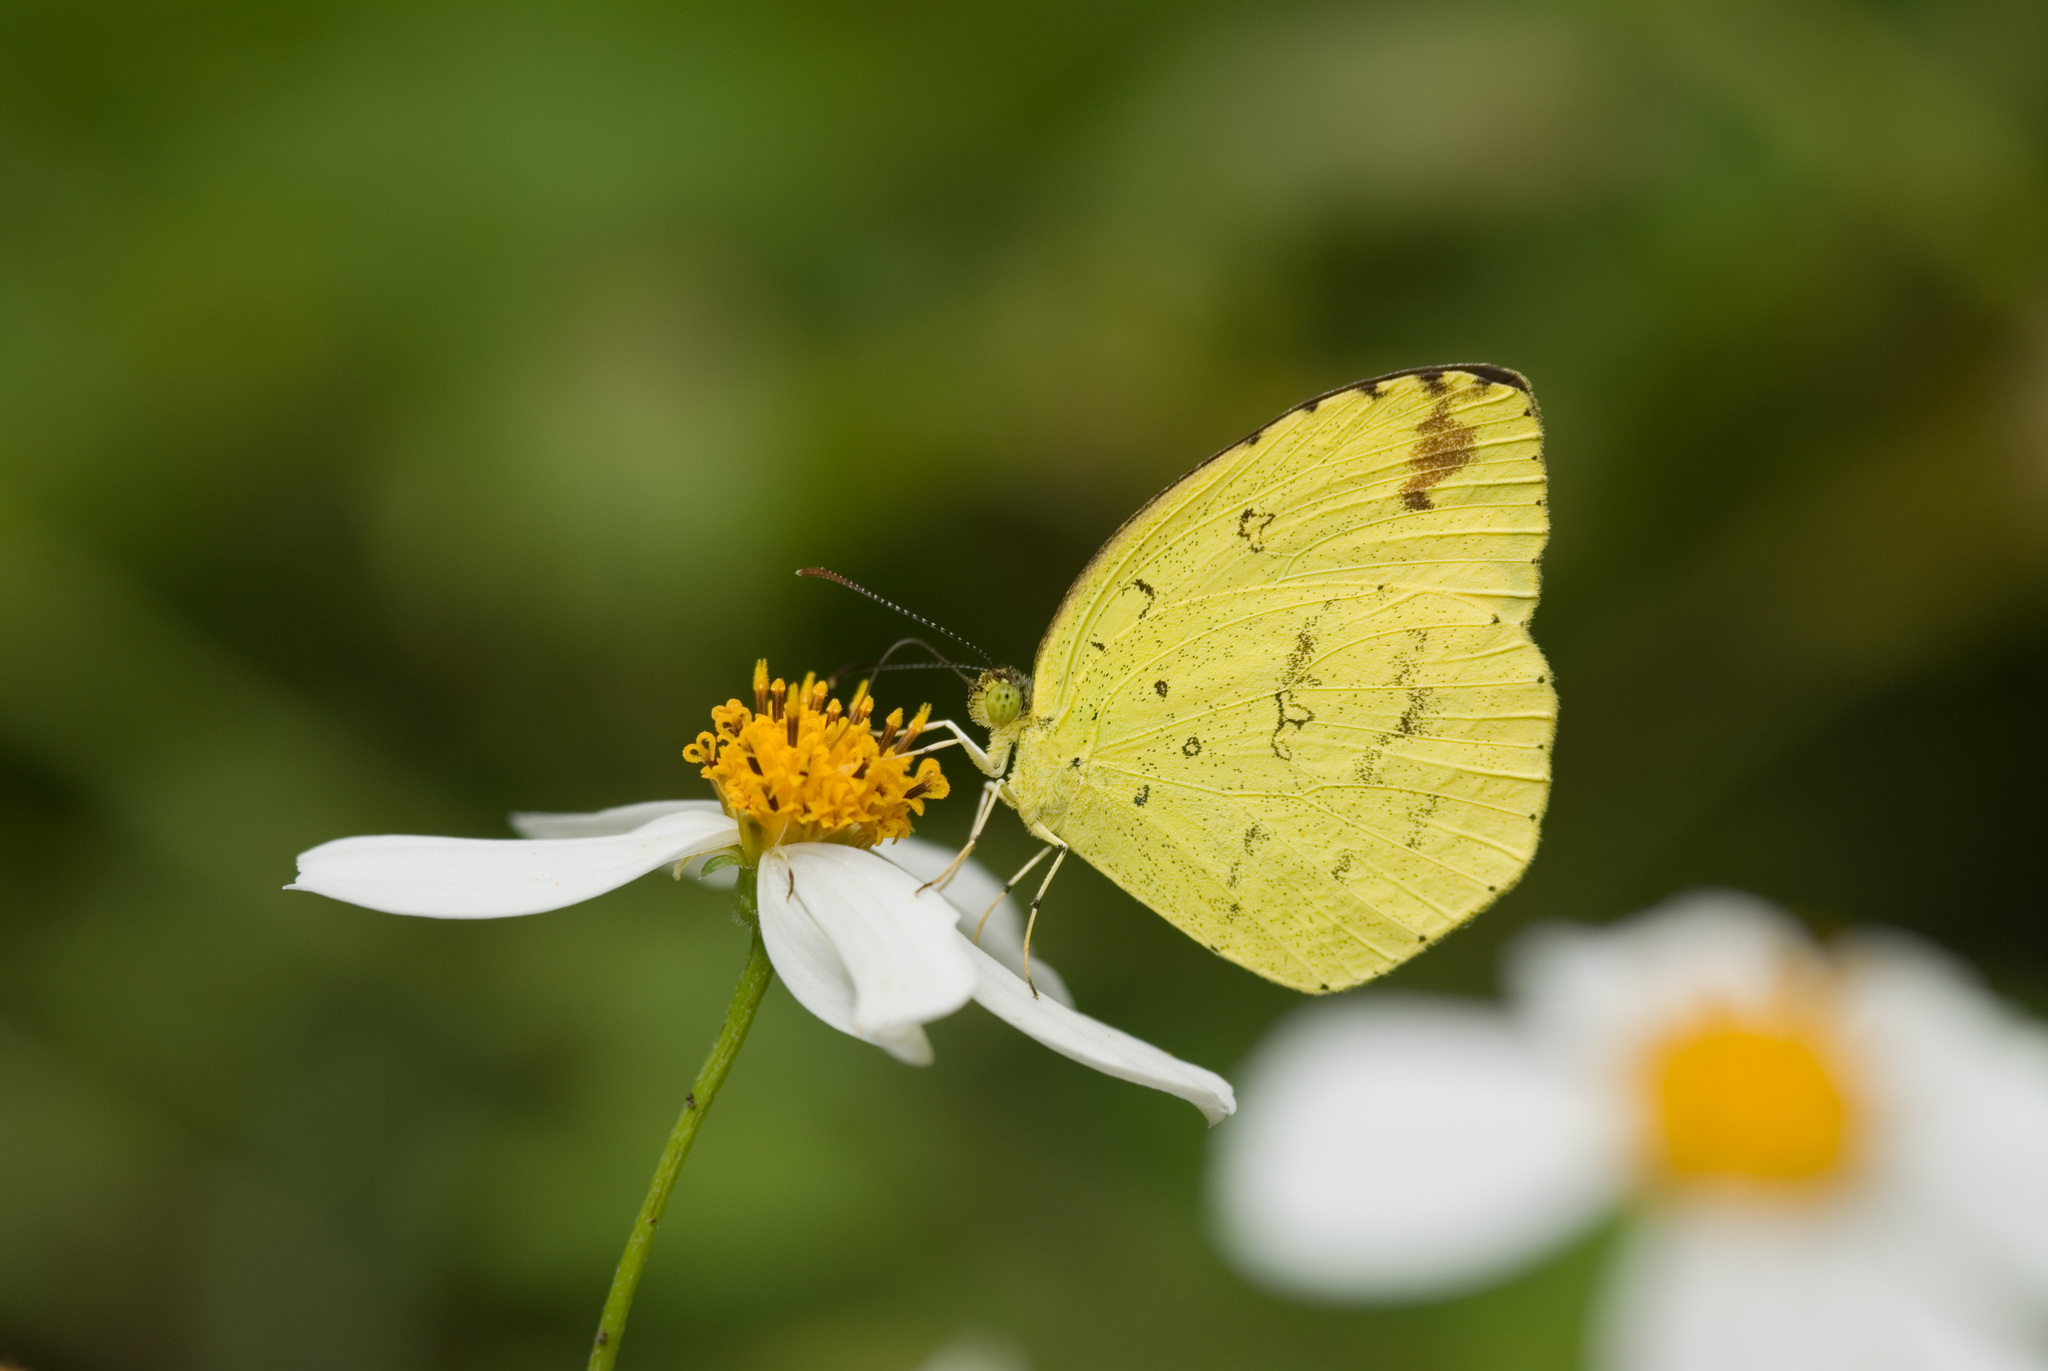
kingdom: Animalia
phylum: Arthropoda
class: Insecta
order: Lepidoptera
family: Pieridae
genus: Eurema
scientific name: Eurema hecabe
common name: Pale grass yellow
